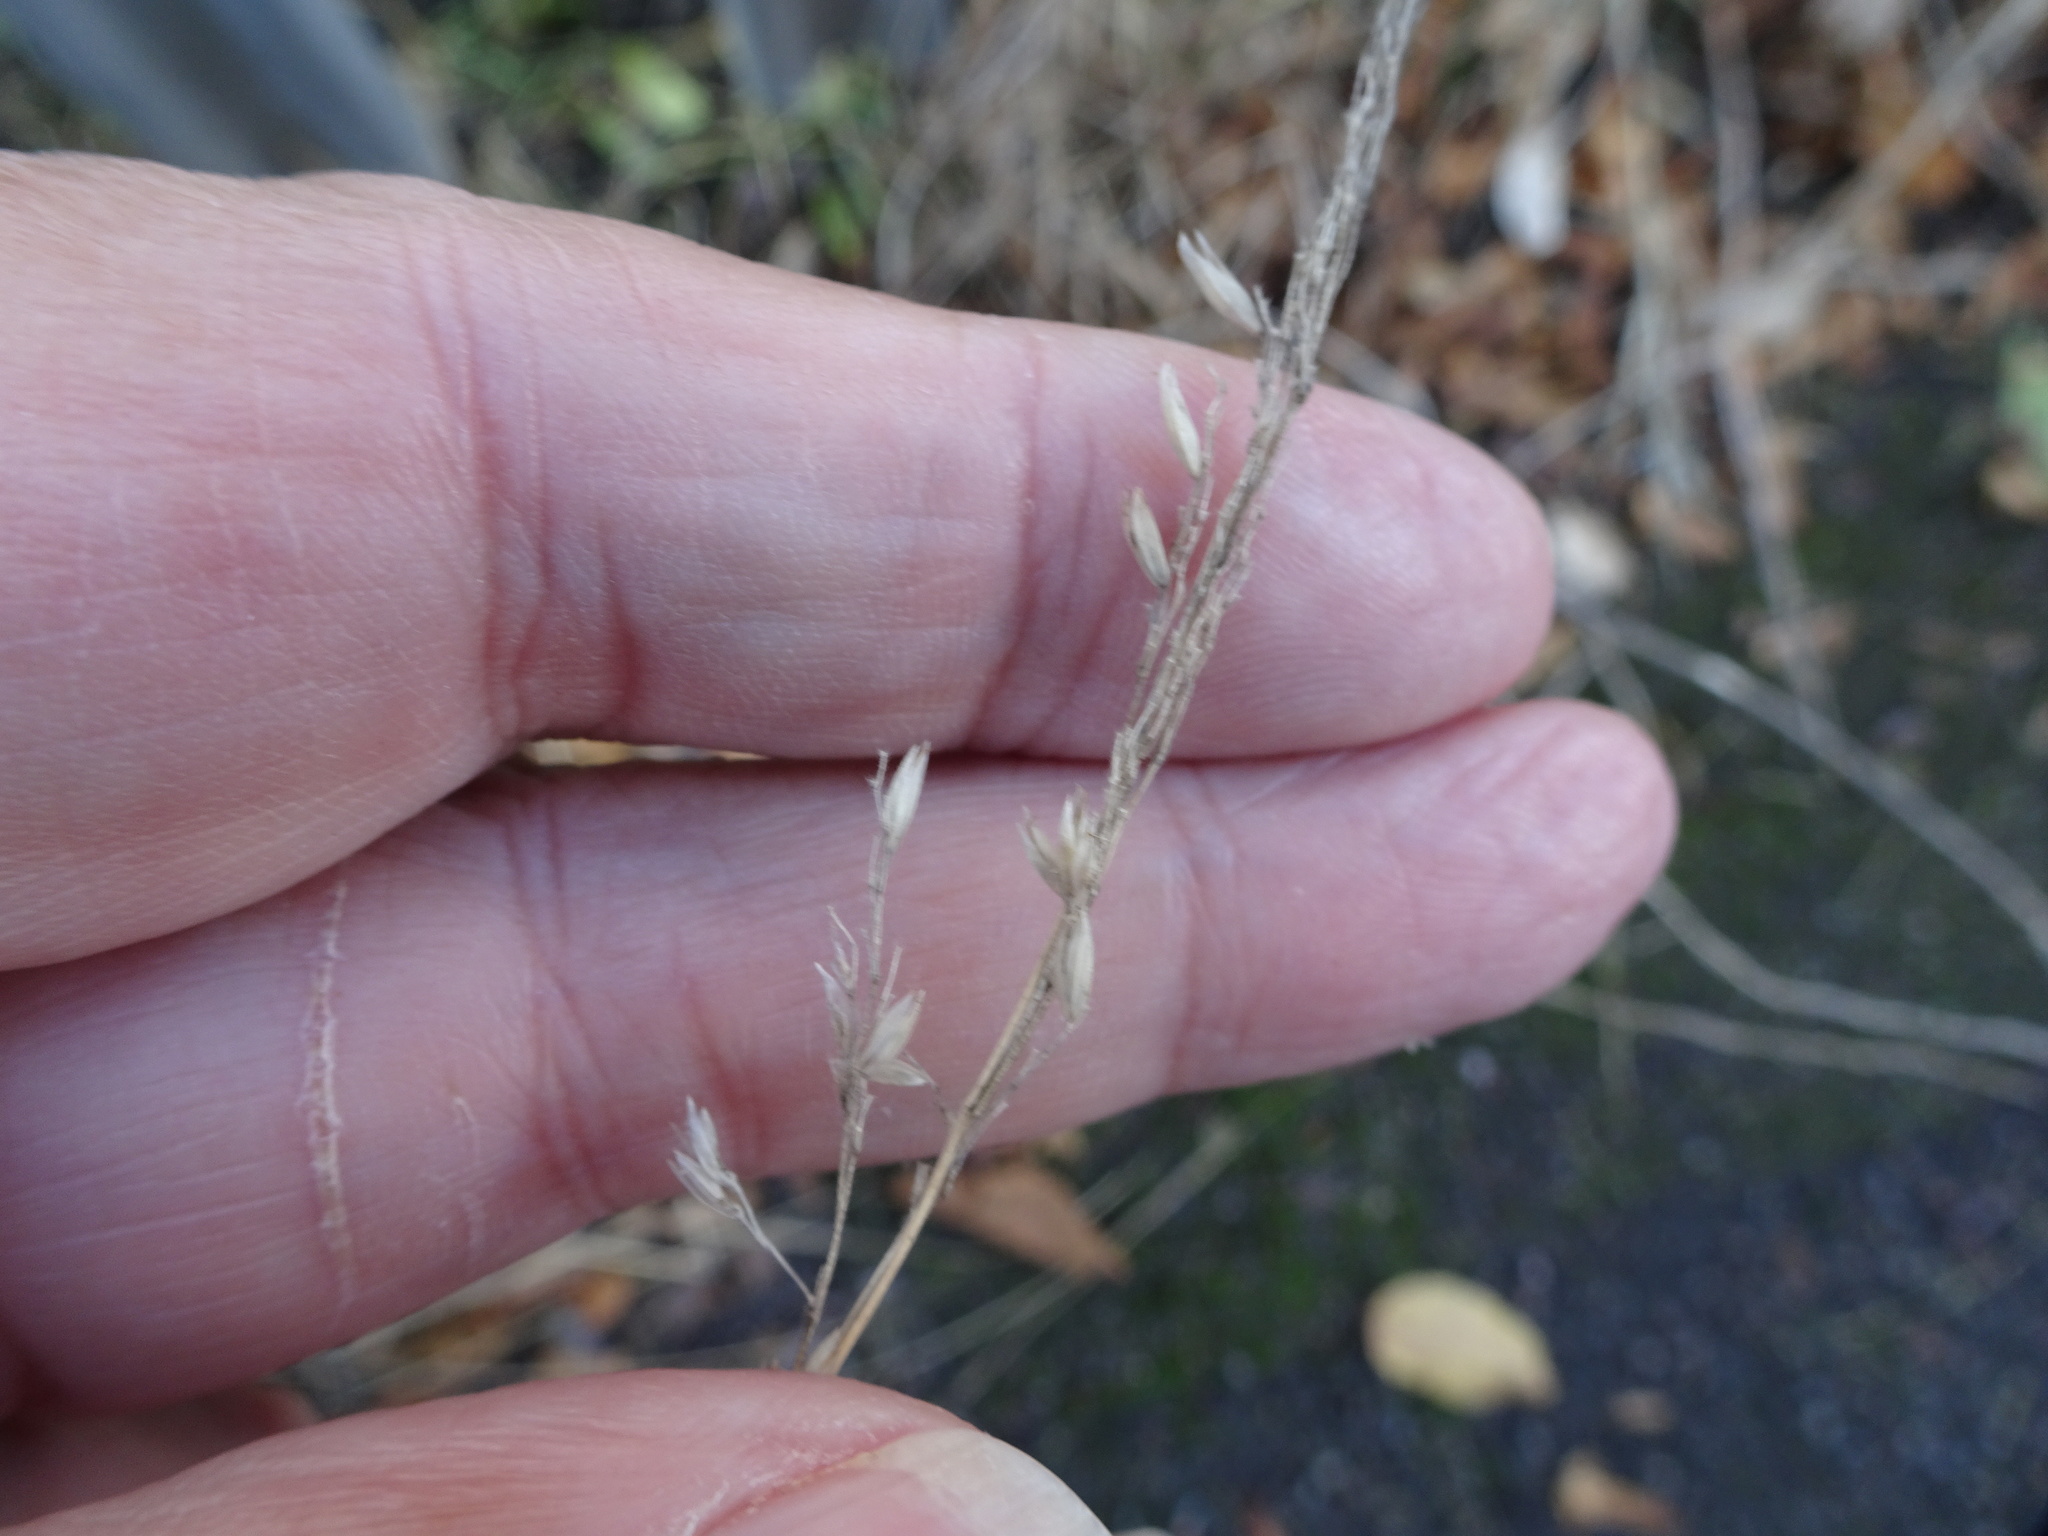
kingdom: Plantae
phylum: Tracheophyta
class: Liliopsida
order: Poales
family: Poaceae
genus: Holcus
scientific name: Holcus lanatus
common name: Yorkshire-fog
